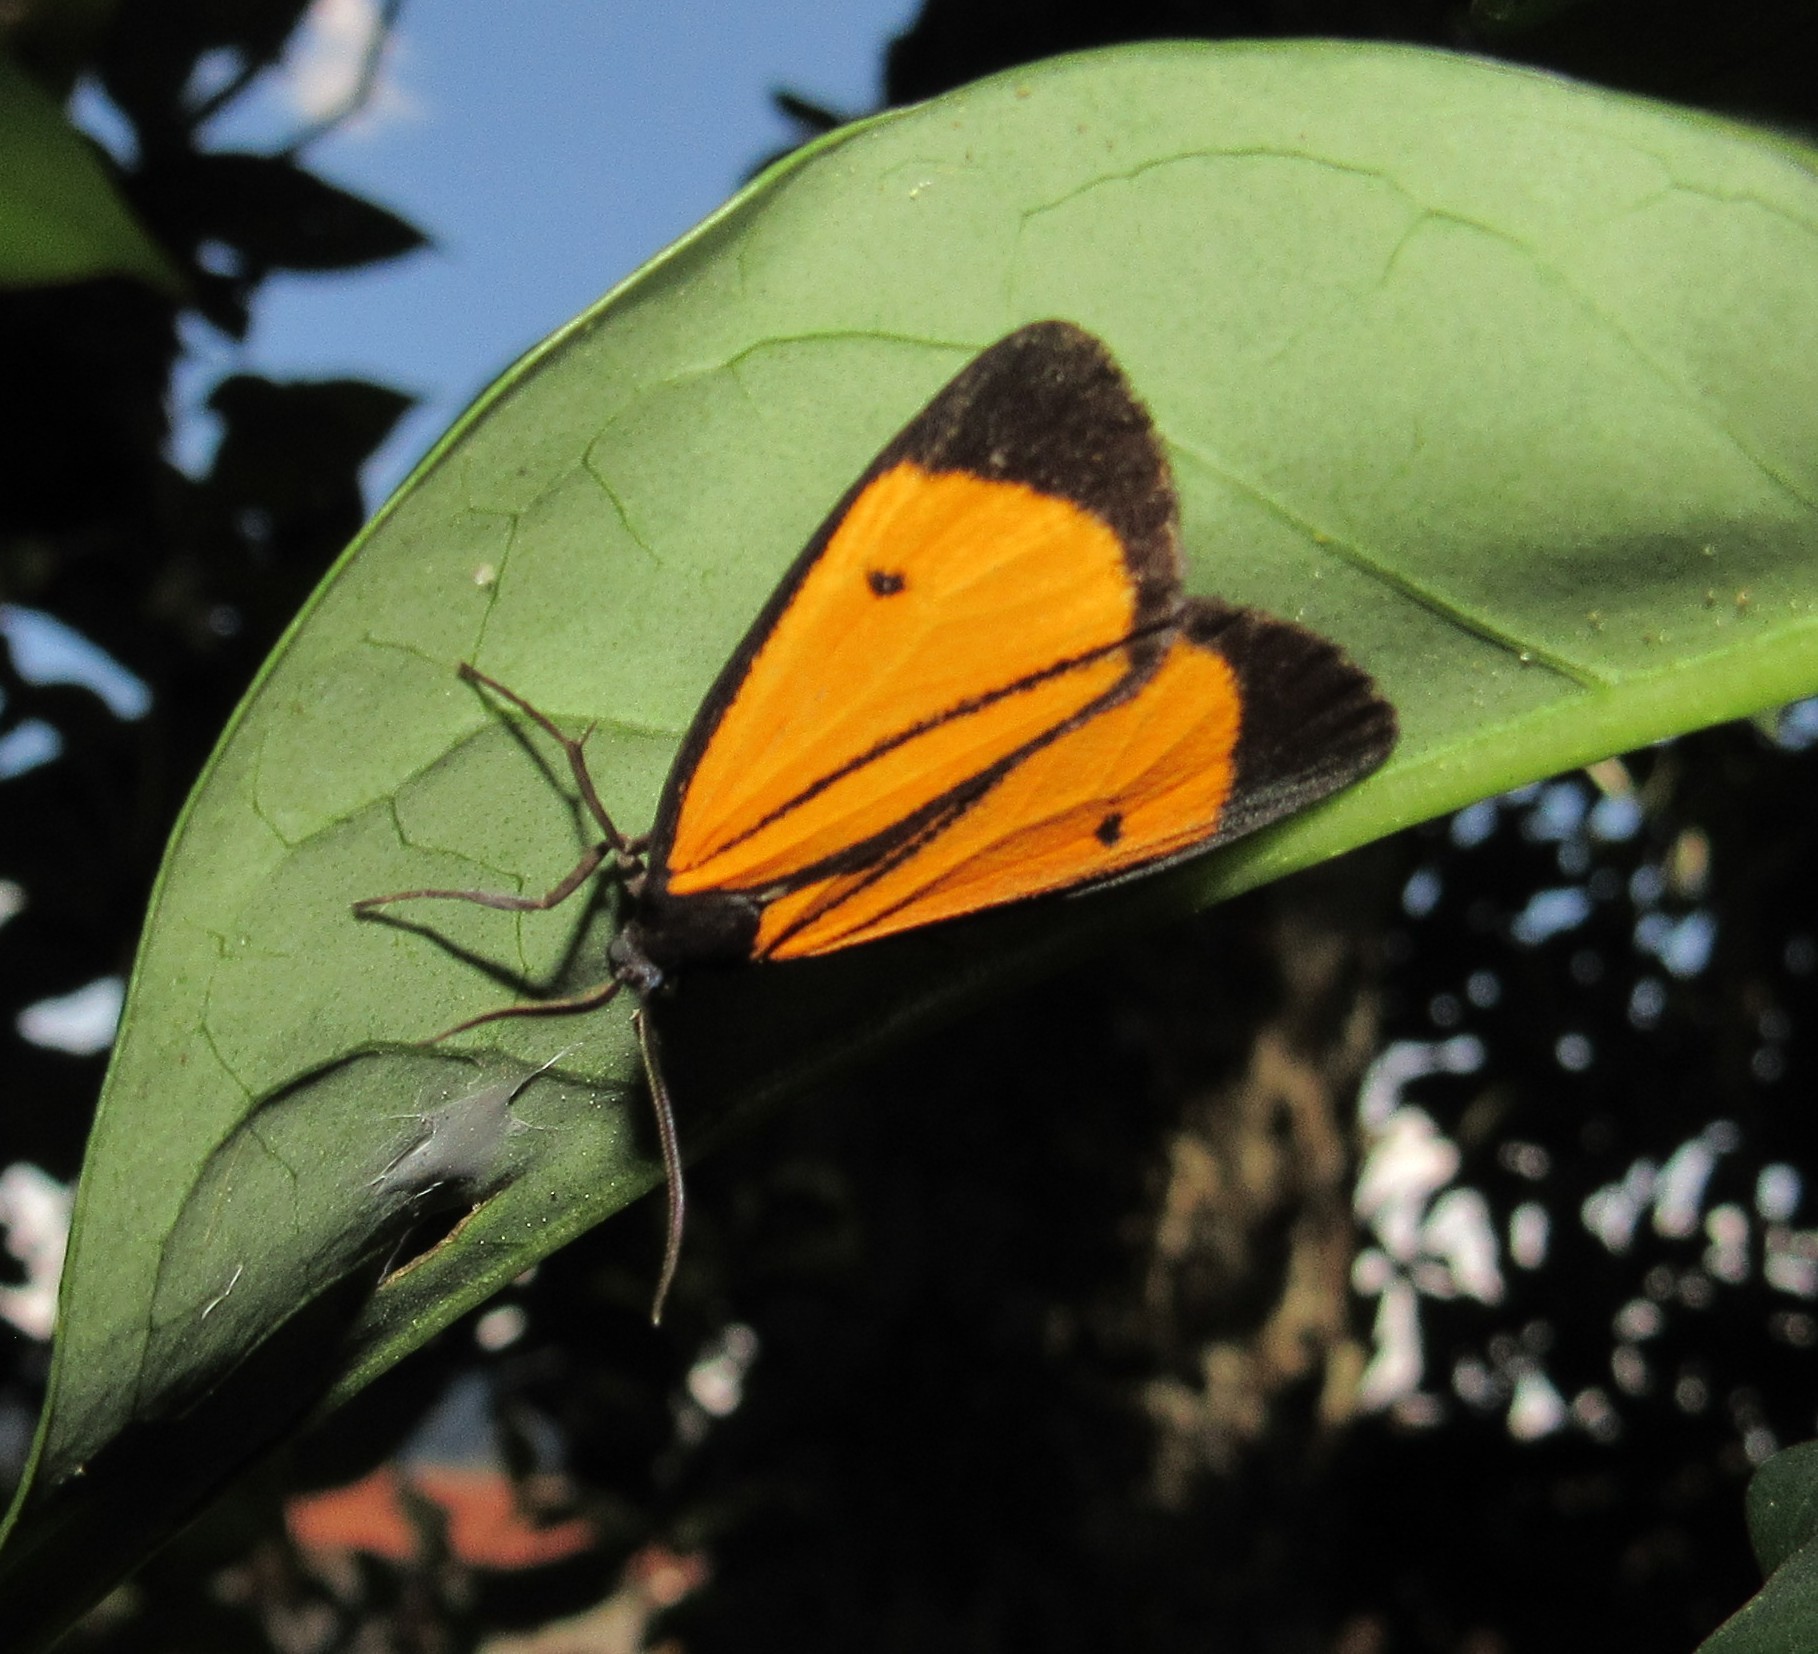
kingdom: Animalia
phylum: Arthropoda
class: Insecta
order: Lepidoptera
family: Erebidae
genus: Paratype
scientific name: Paratype univitta
